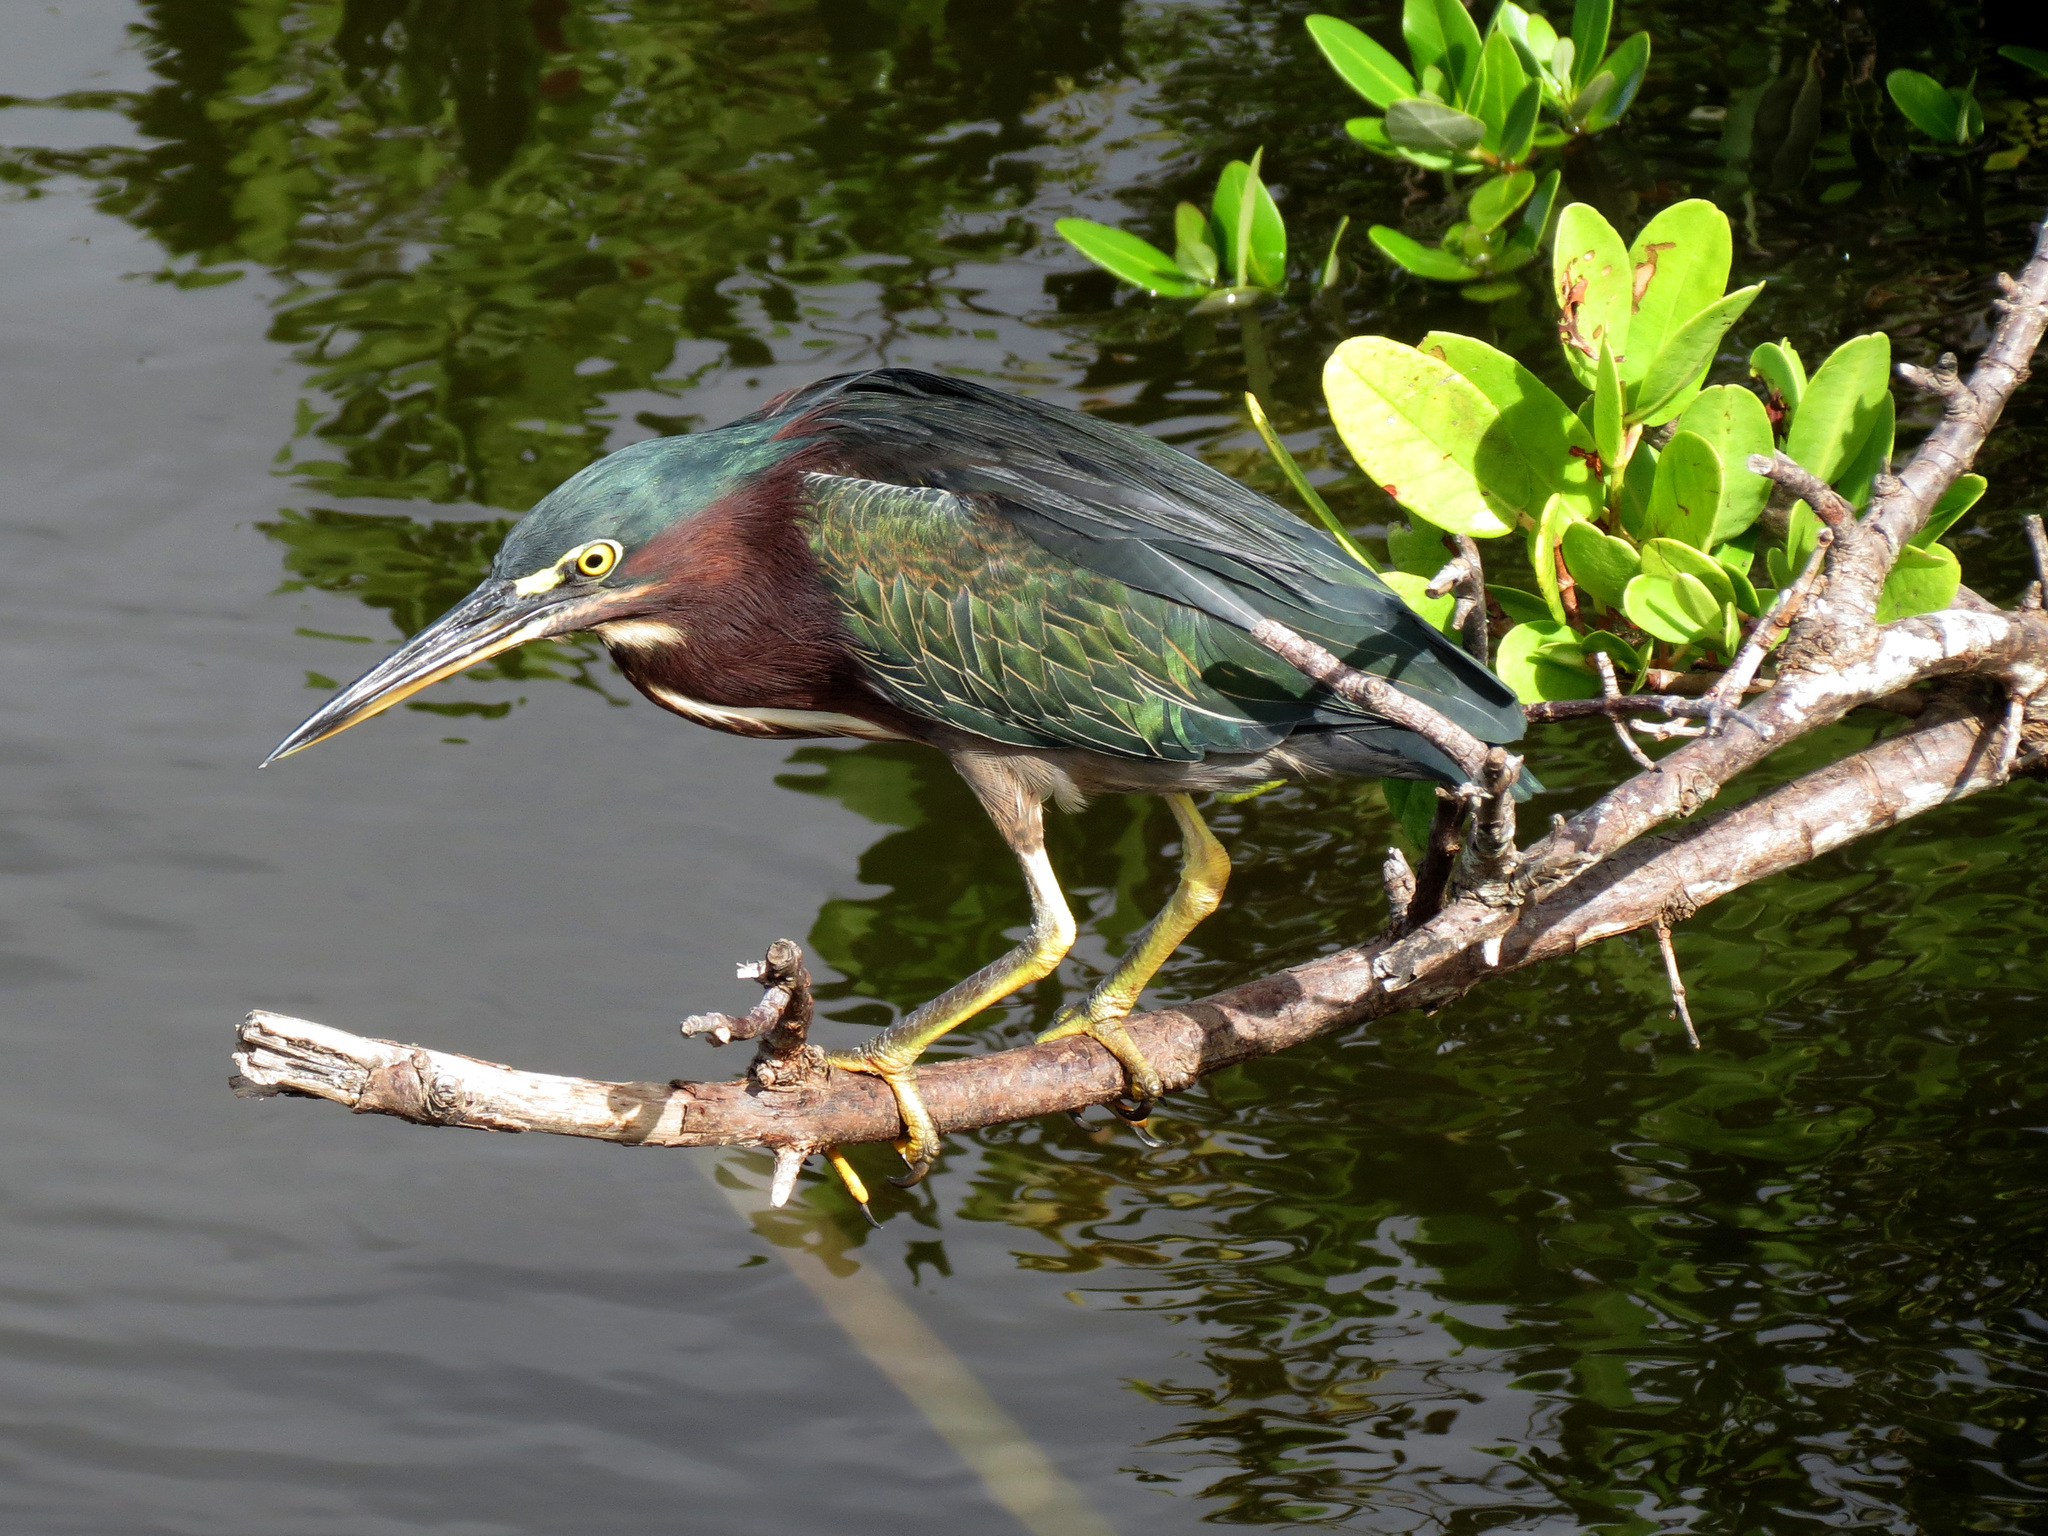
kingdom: Animalia
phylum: Chordata
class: Aves
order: Pelecaniformes
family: Ardeidae
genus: Butorides
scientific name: Butorides virescens
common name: Green heron
